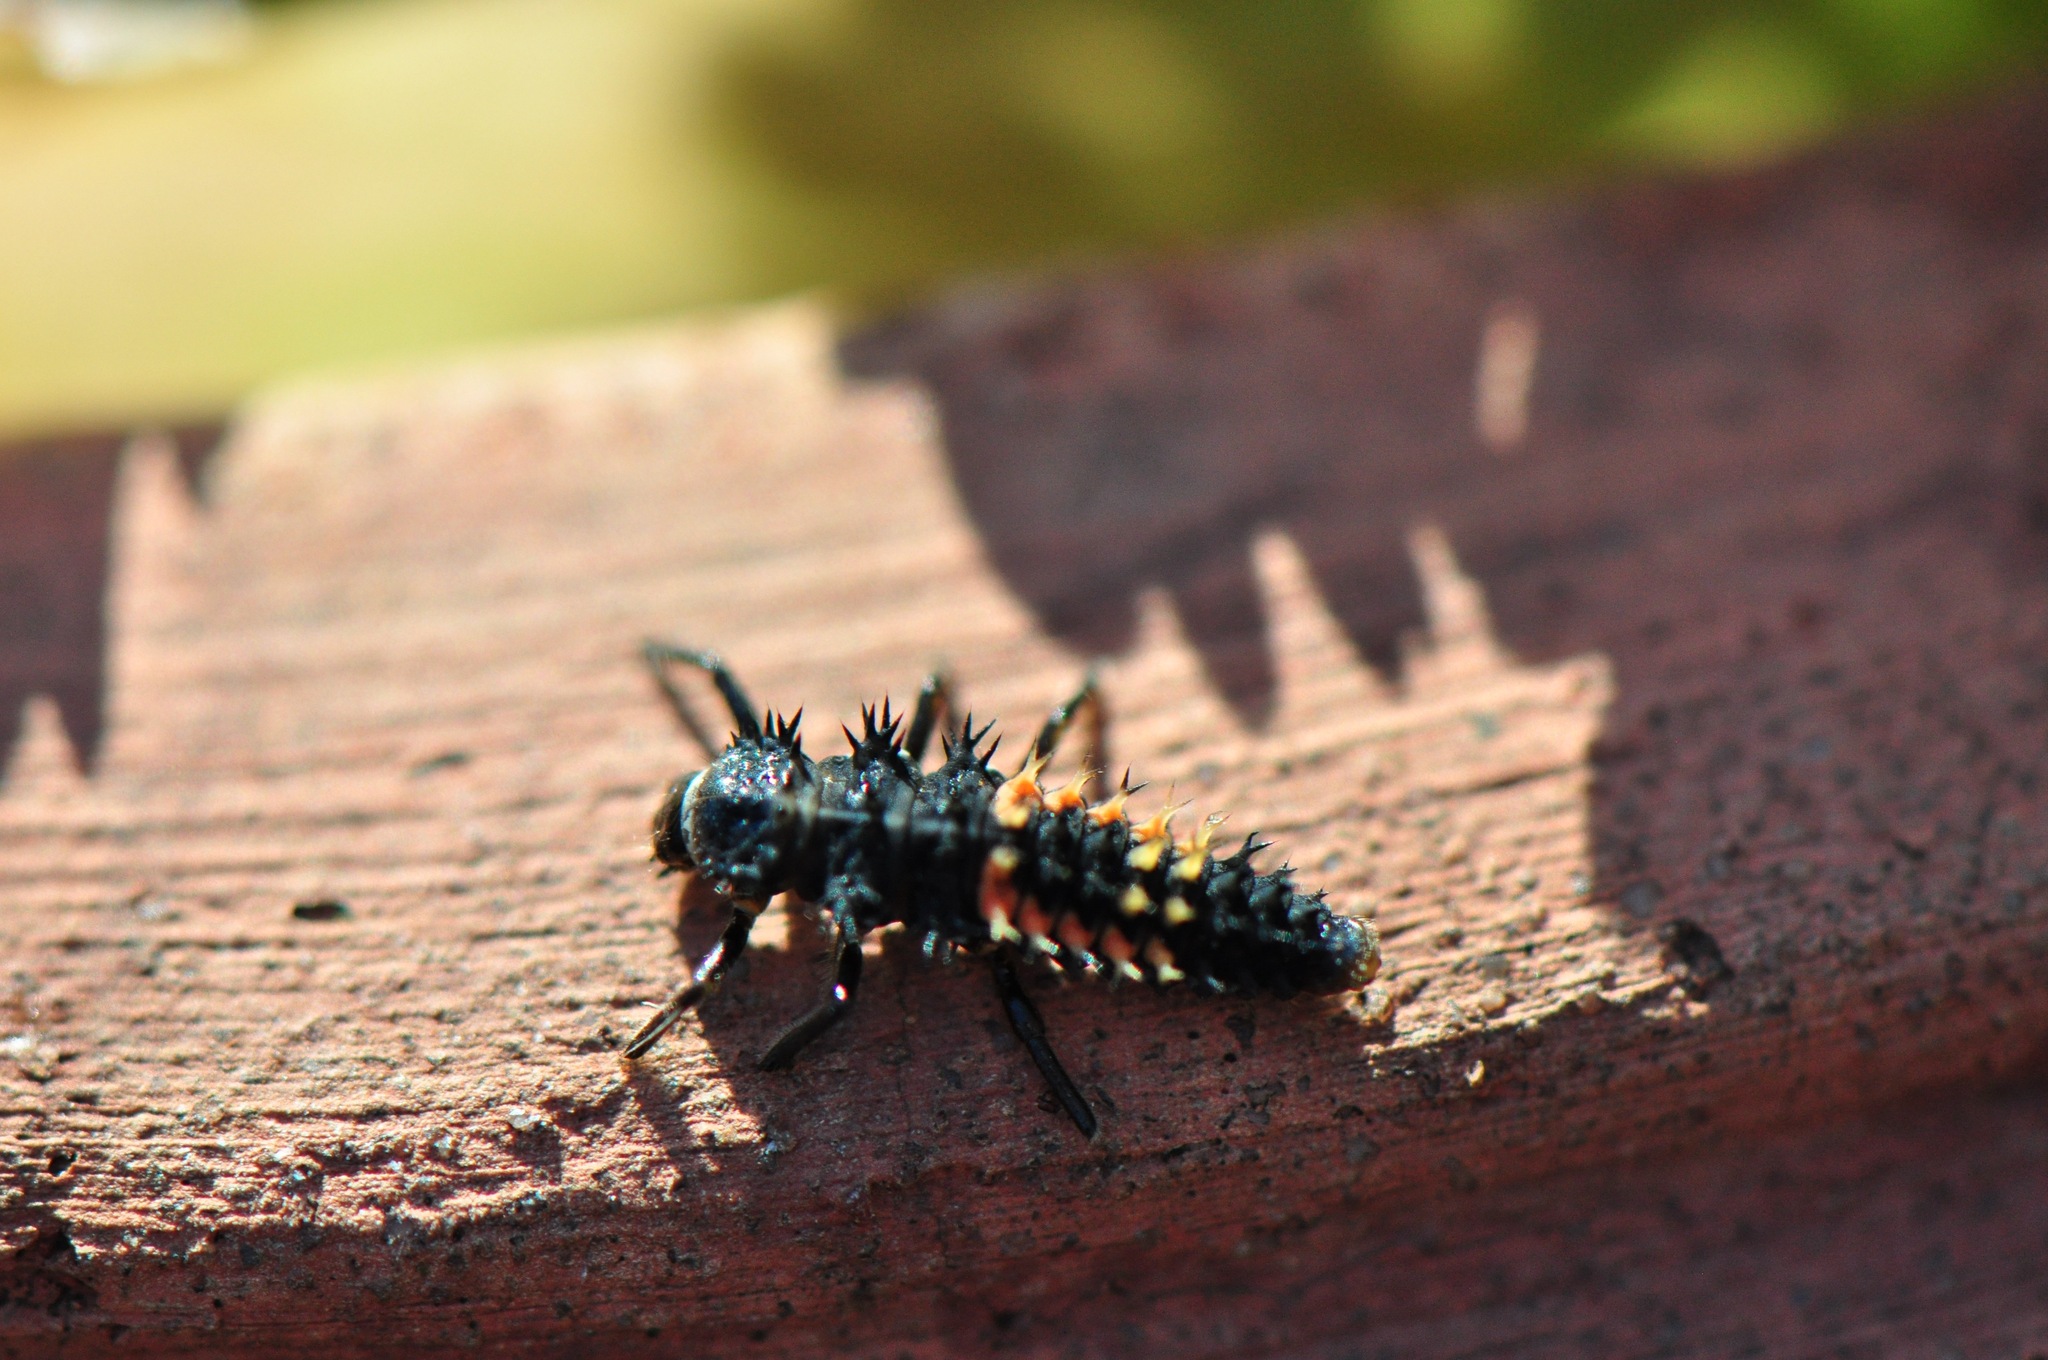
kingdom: Animalia
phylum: Arthropoda
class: Insecta
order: Coleoptera
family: Coccinellidae
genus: Harmonia
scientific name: Harmonia axyridis
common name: Harlequin ladybird
